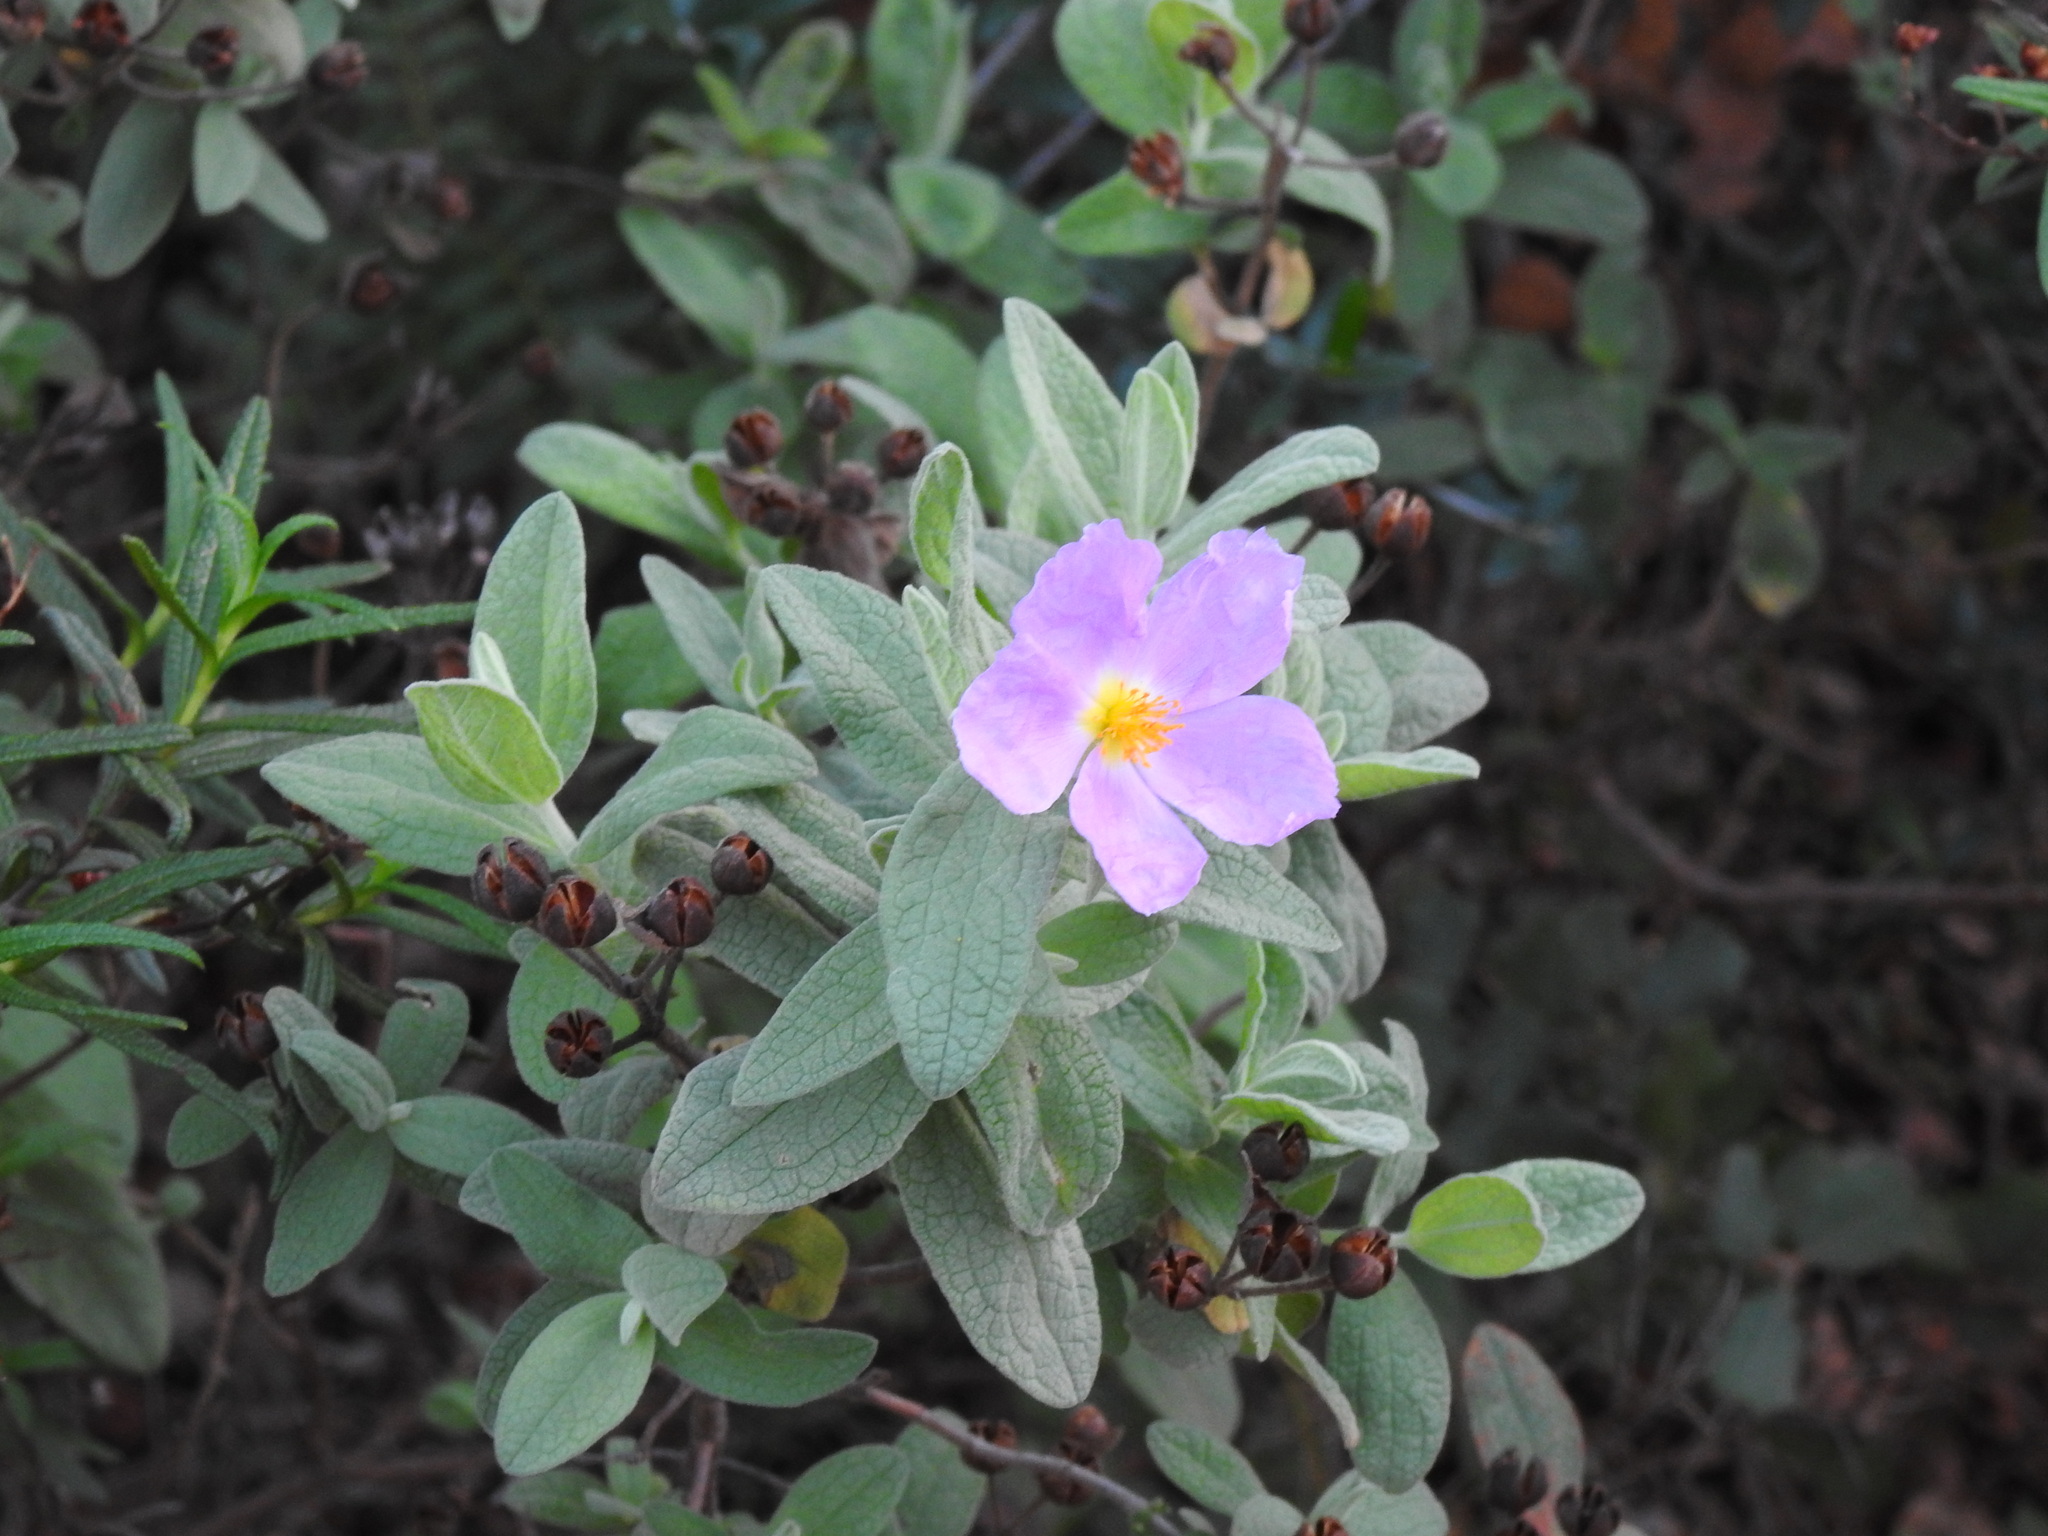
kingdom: Plantae
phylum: Tracheophyta
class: Magnoliopsida
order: Malvales
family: Cistaceae
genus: Cistus
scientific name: Cistus albidus
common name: White-leaf rock-rose
